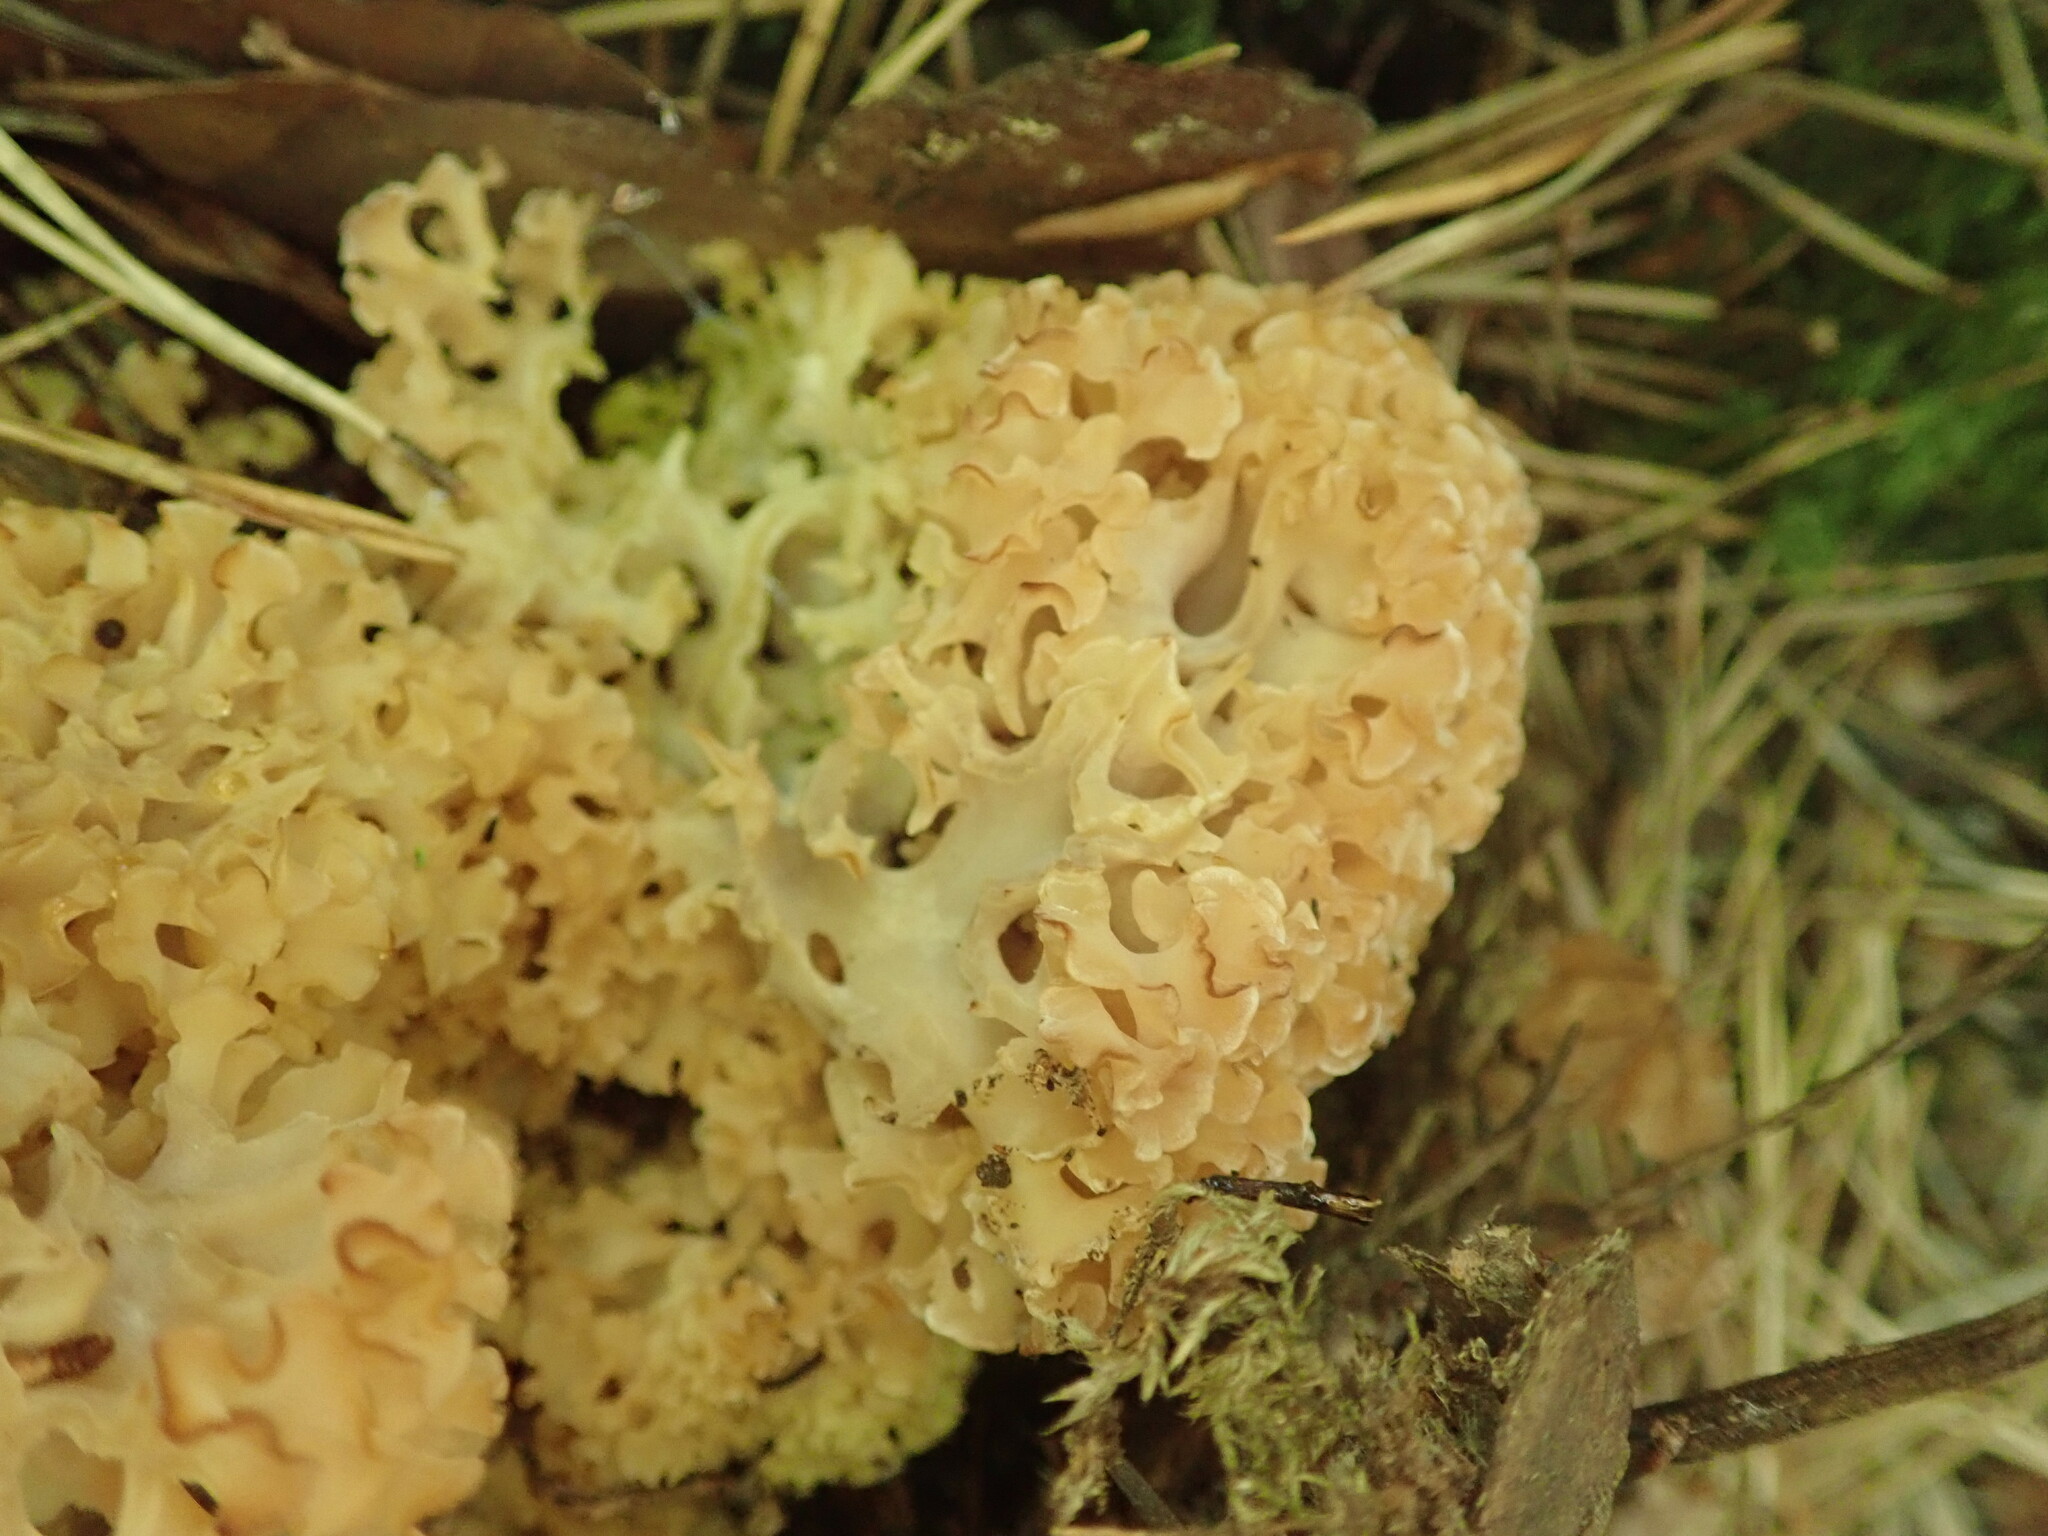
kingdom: Fungi
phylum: Basidiomycota
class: Agaricomycetes
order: Polyporales
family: Sparassidaceae
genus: Sparassis
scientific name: Sparassis crispa
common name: Brain fungus
